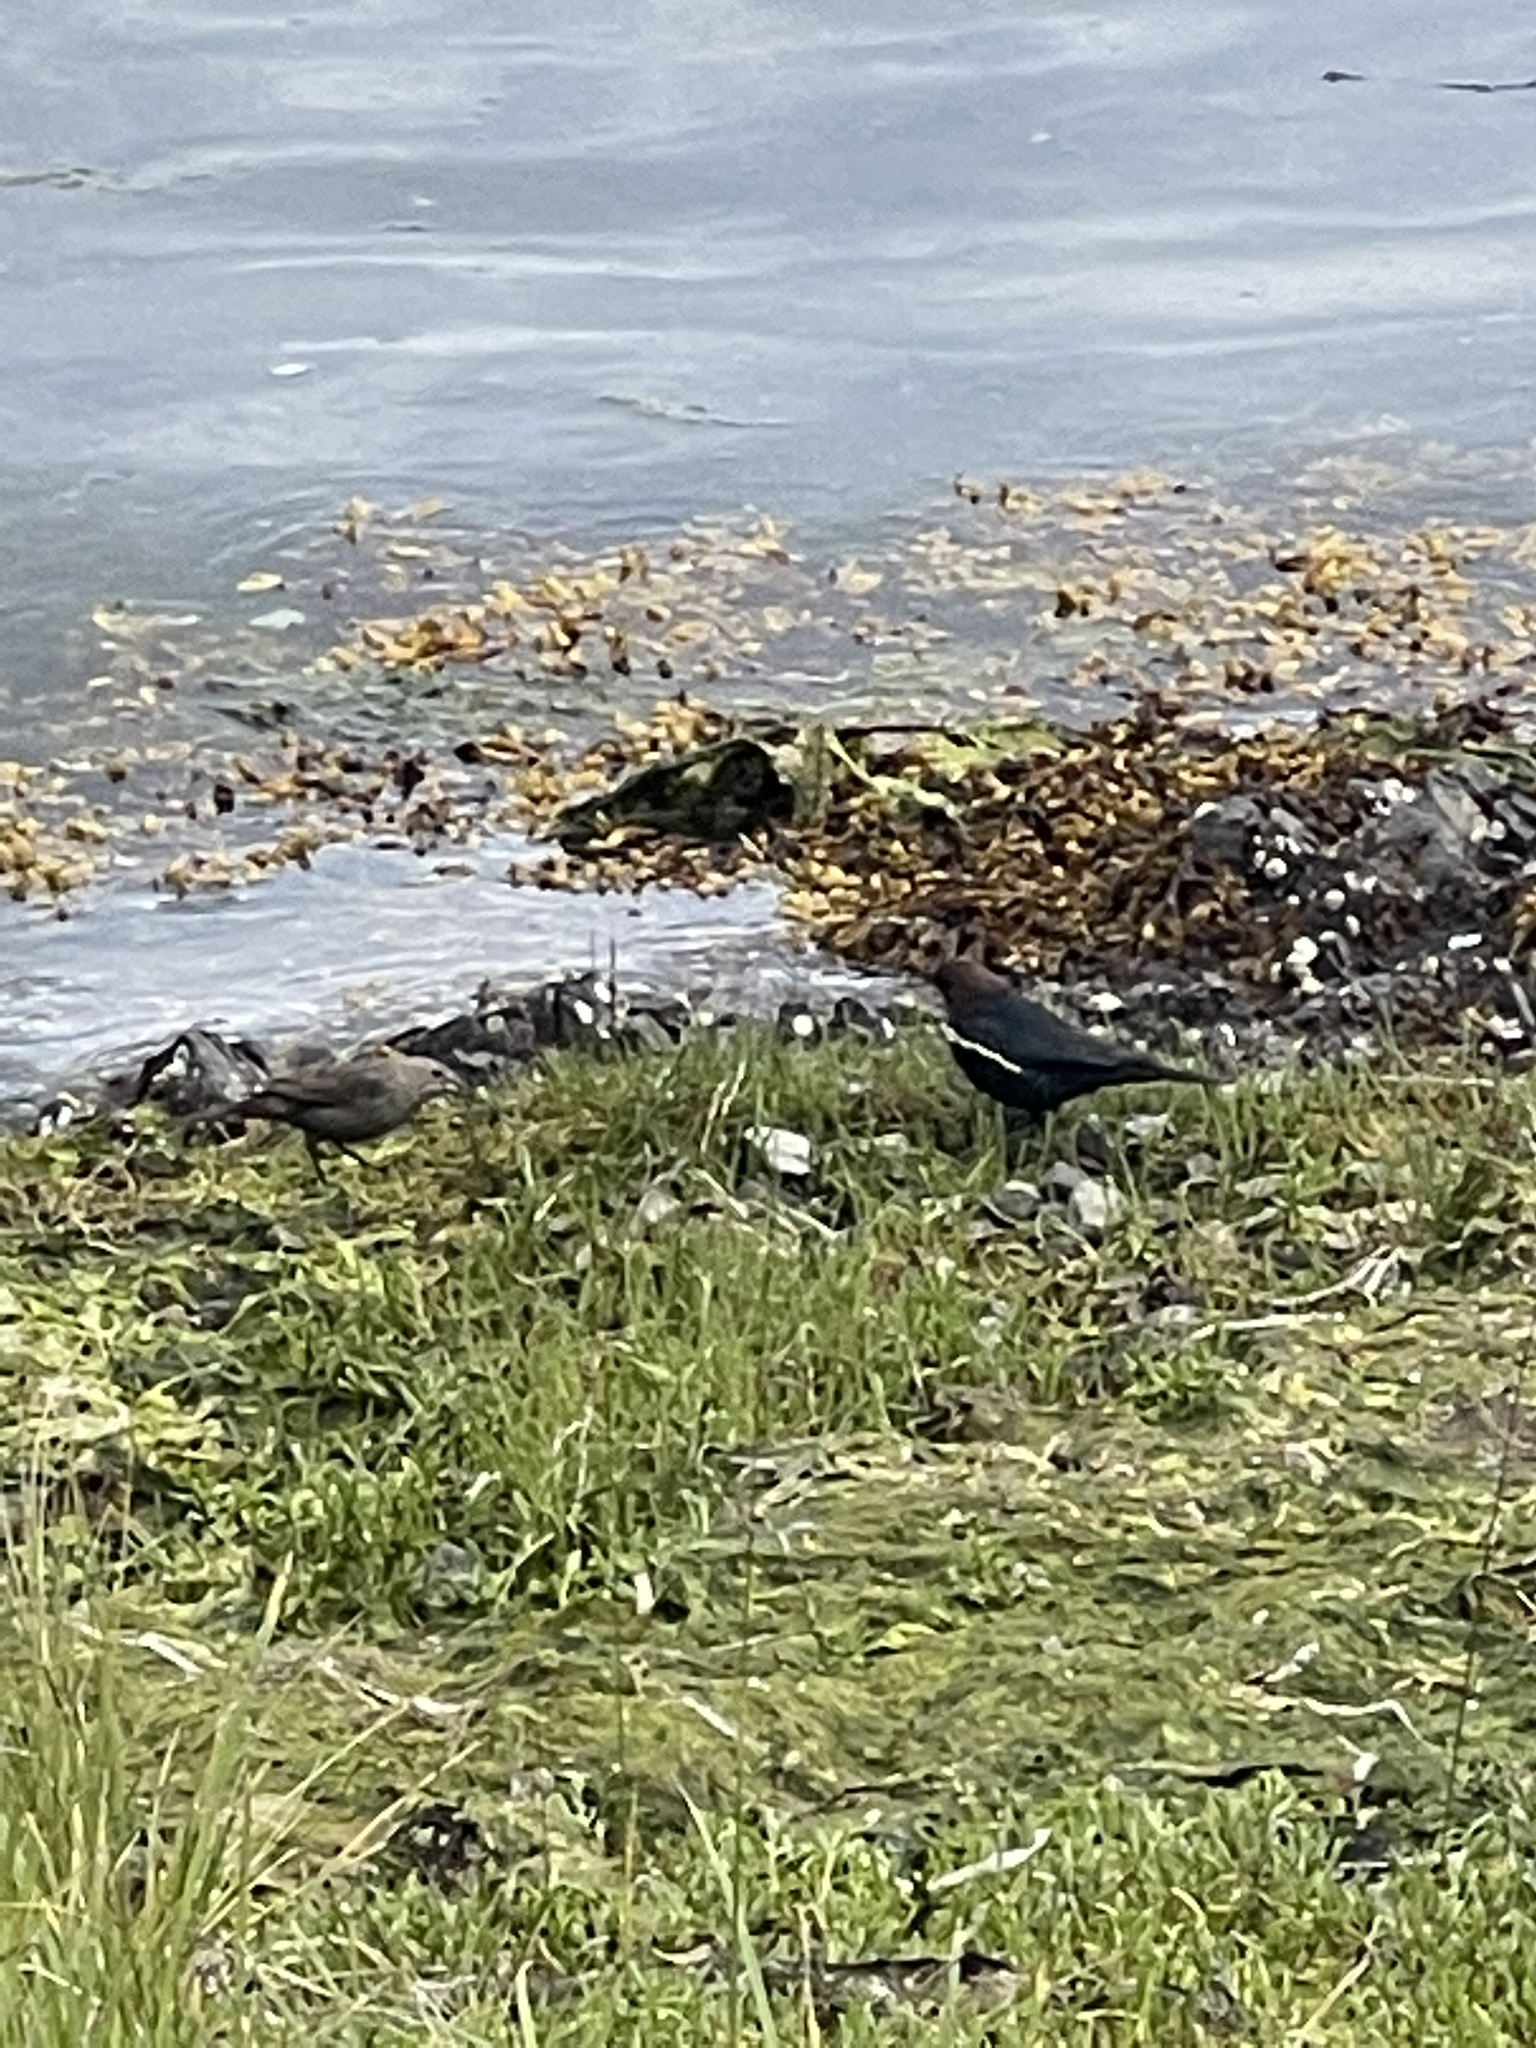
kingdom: Animalia
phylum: Chordata
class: Aves
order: Passeriformes
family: Icteridae
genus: Molothrus
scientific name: Molothrus ater
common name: Brown-headed cowbird
